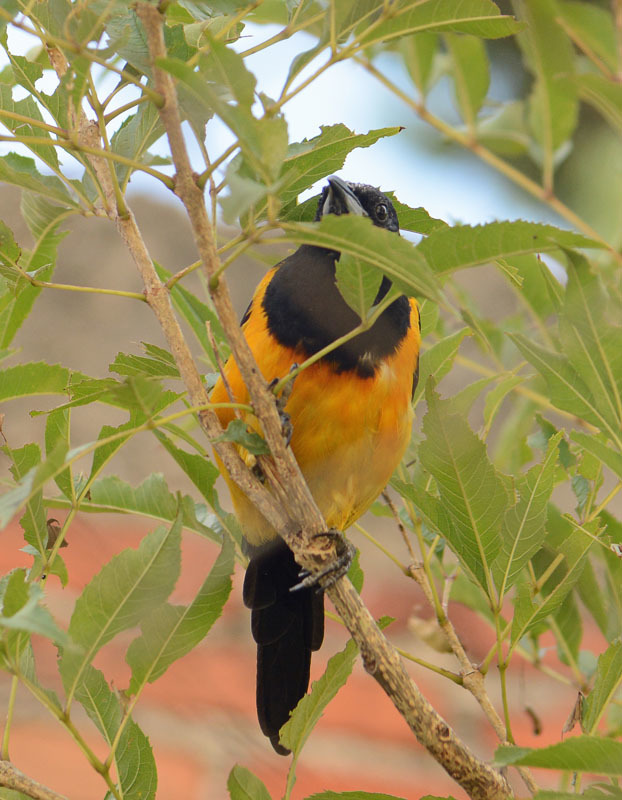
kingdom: Animalia
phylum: Chordata
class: Aves
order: Passeriformes
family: Icteridae
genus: Icterus
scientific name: Icterus wagleri
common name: Black-vented oriole
